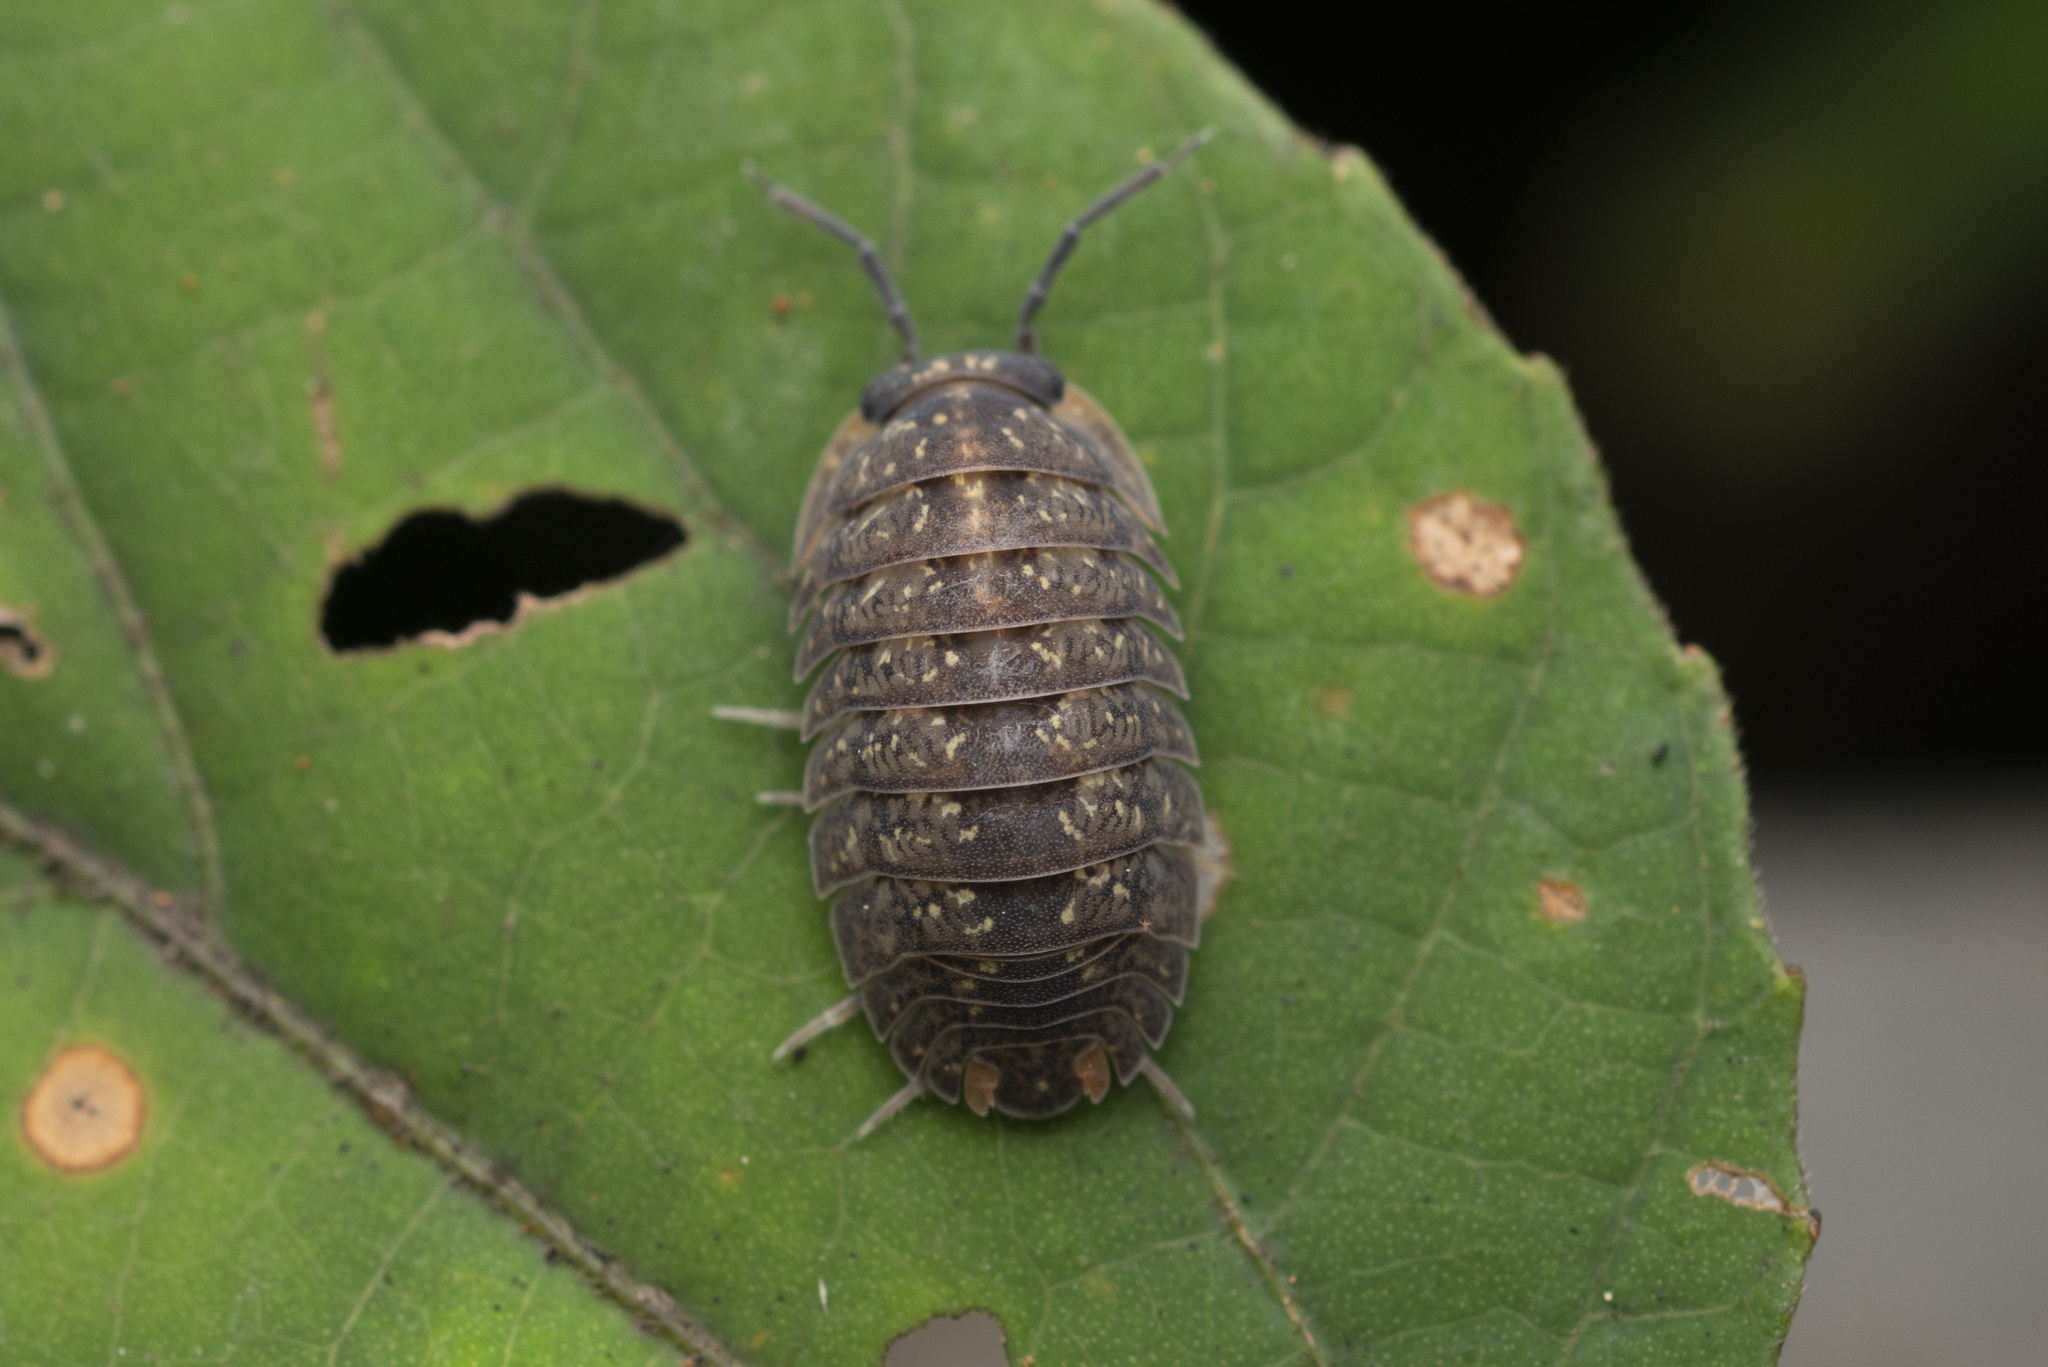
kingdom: Animalia
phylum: Arthropoda
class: Malacostraca
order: Isopoda
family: Armadillidae
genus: Dryadillo
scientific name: Dryadillo maculatus
